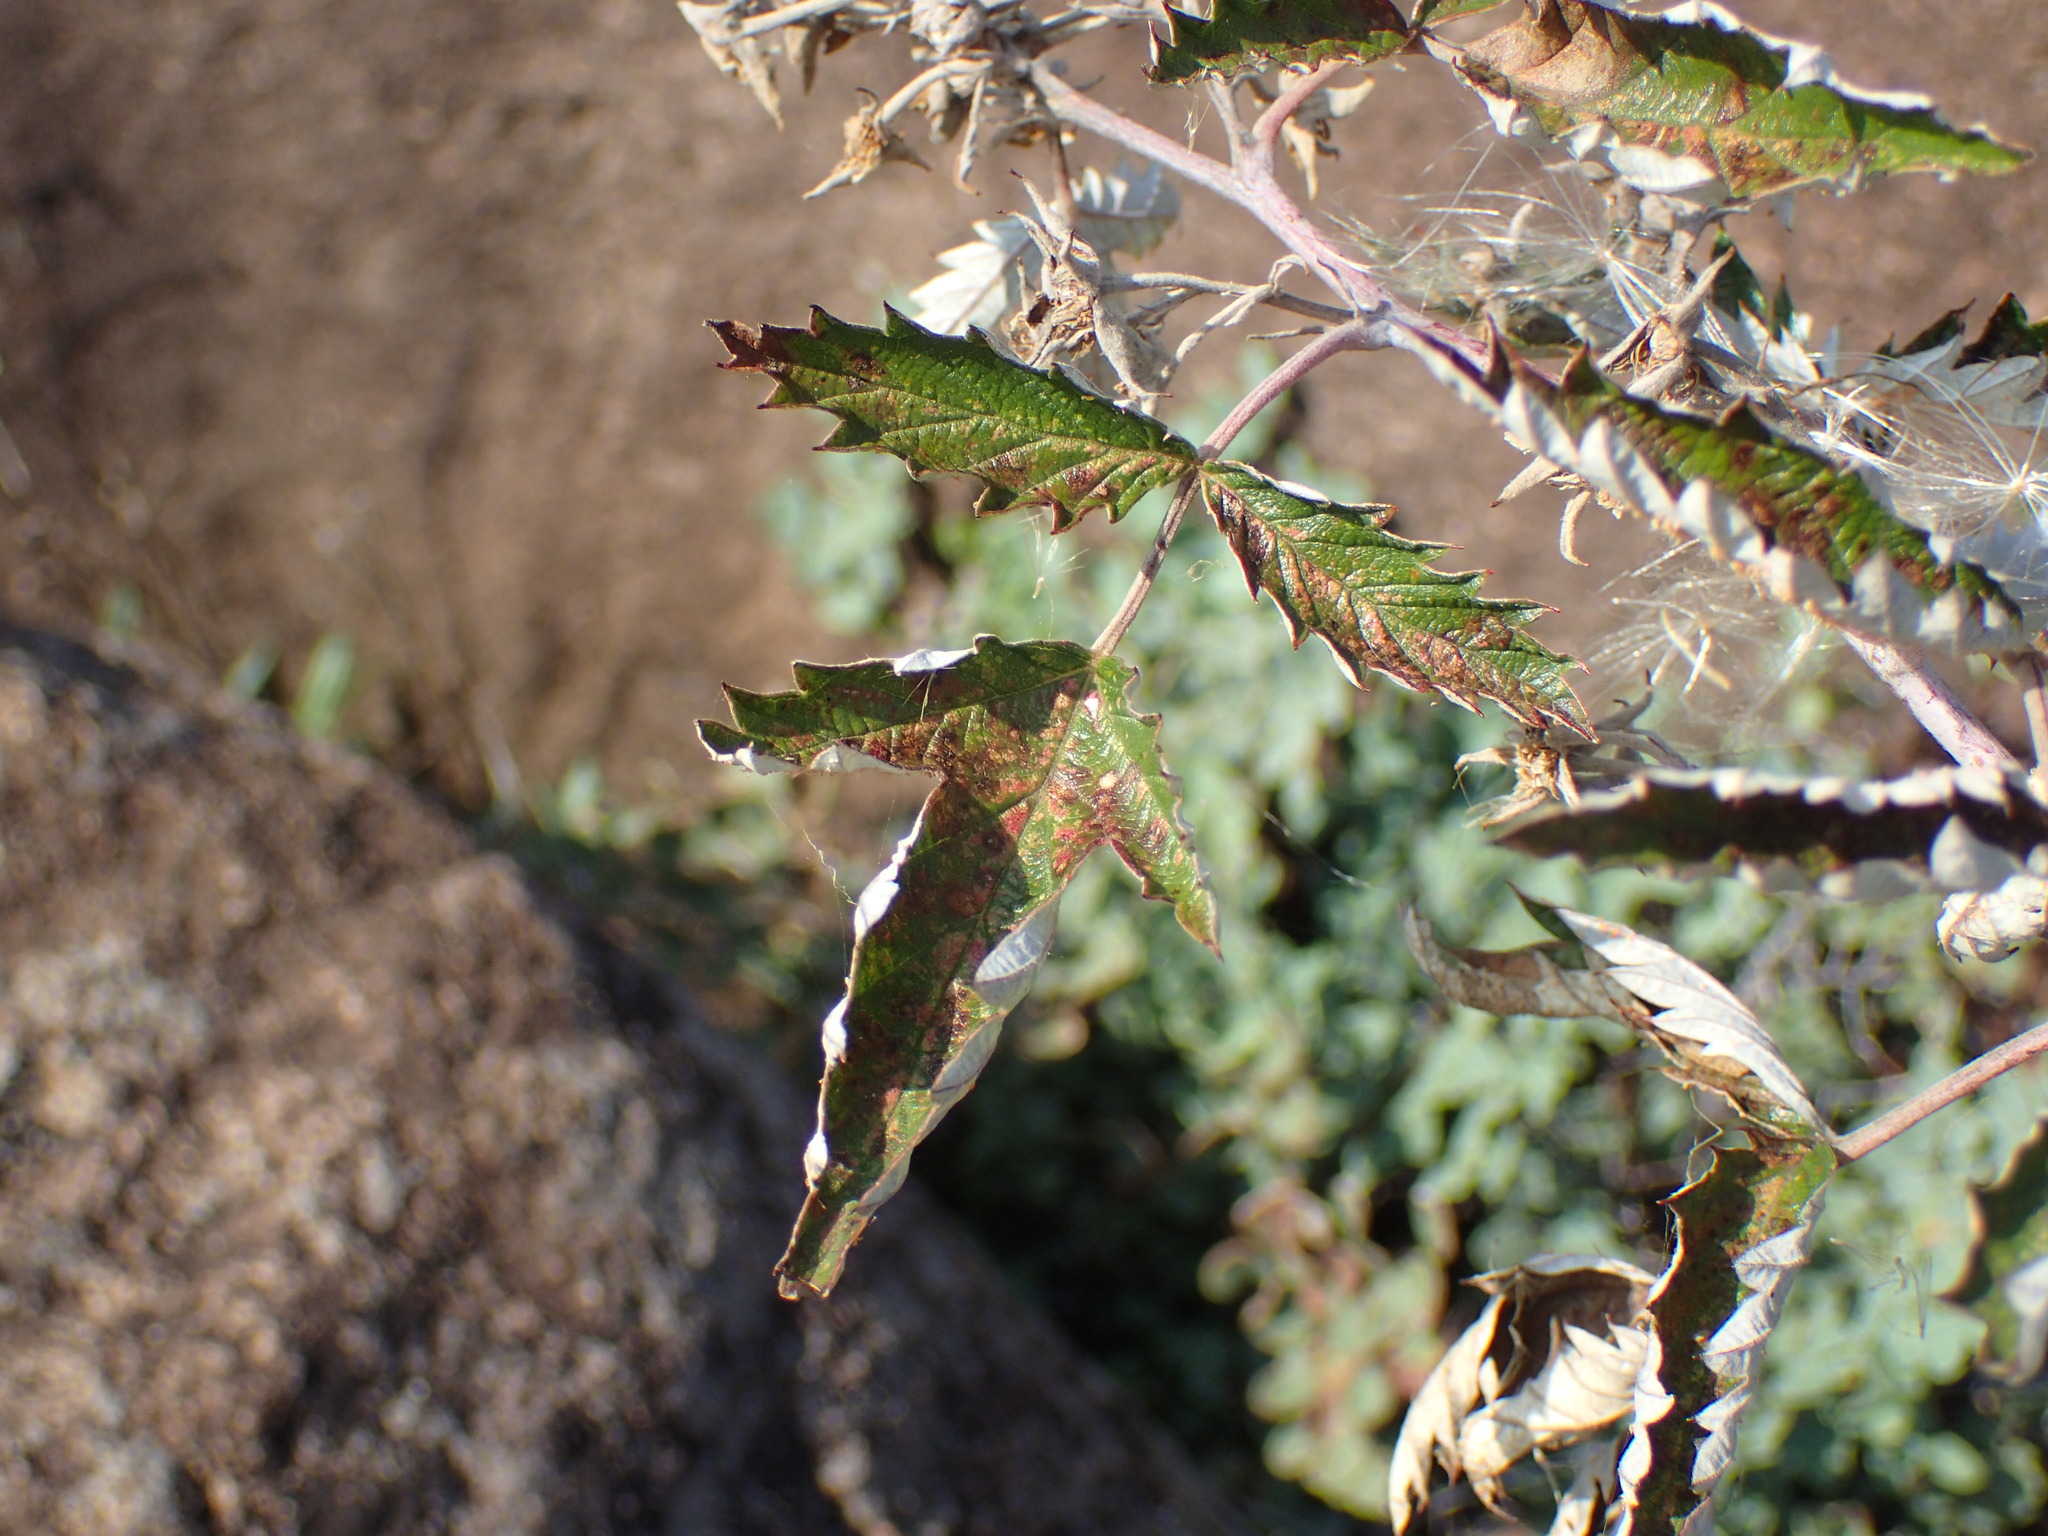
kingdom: Plantae
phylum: Tracheophyta
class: Magnoliopsida
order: Rosales
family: Rosaceae
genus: Rubus
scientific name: Rubus ludwigii
